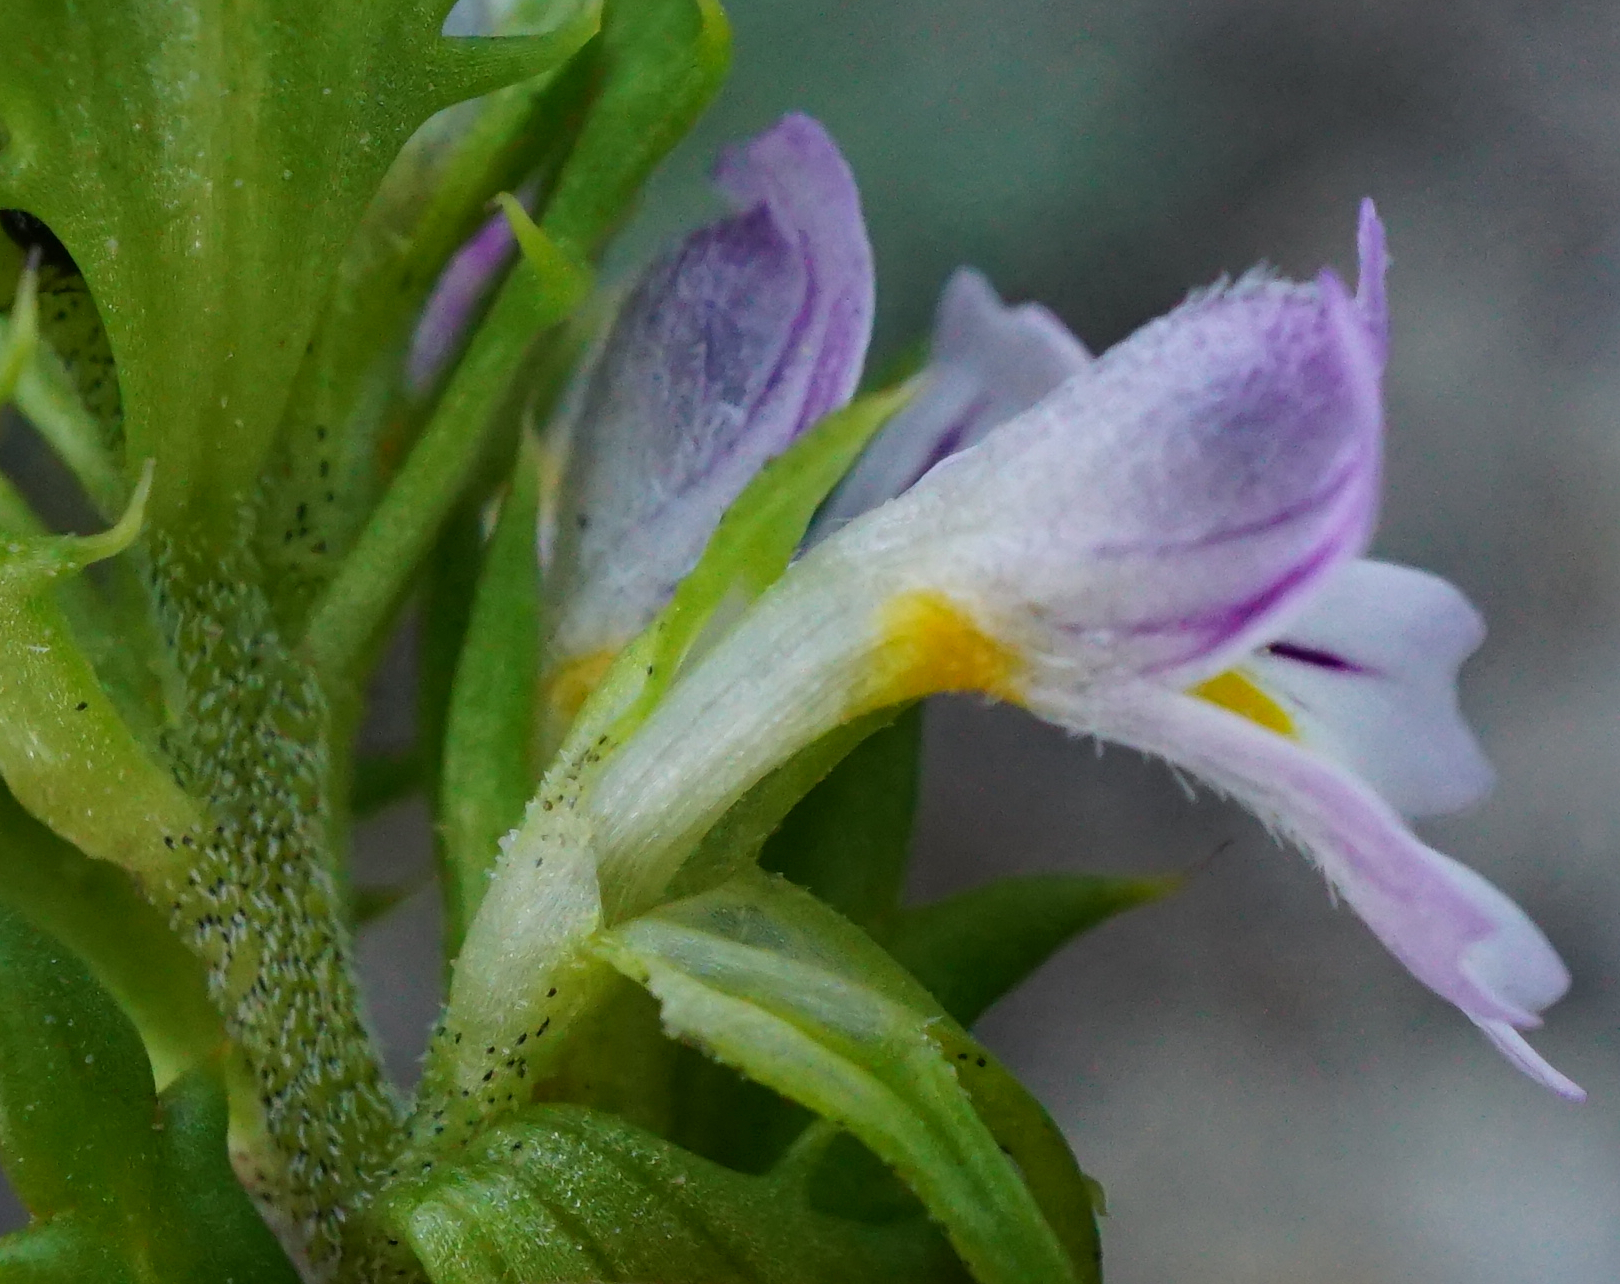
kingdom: Plantae
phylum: Tracheophyta
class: Magnoliopsida
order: Lamiales
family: Orobanchaceae
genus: Euphrasia
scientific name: Euphrasia salisburgensis
